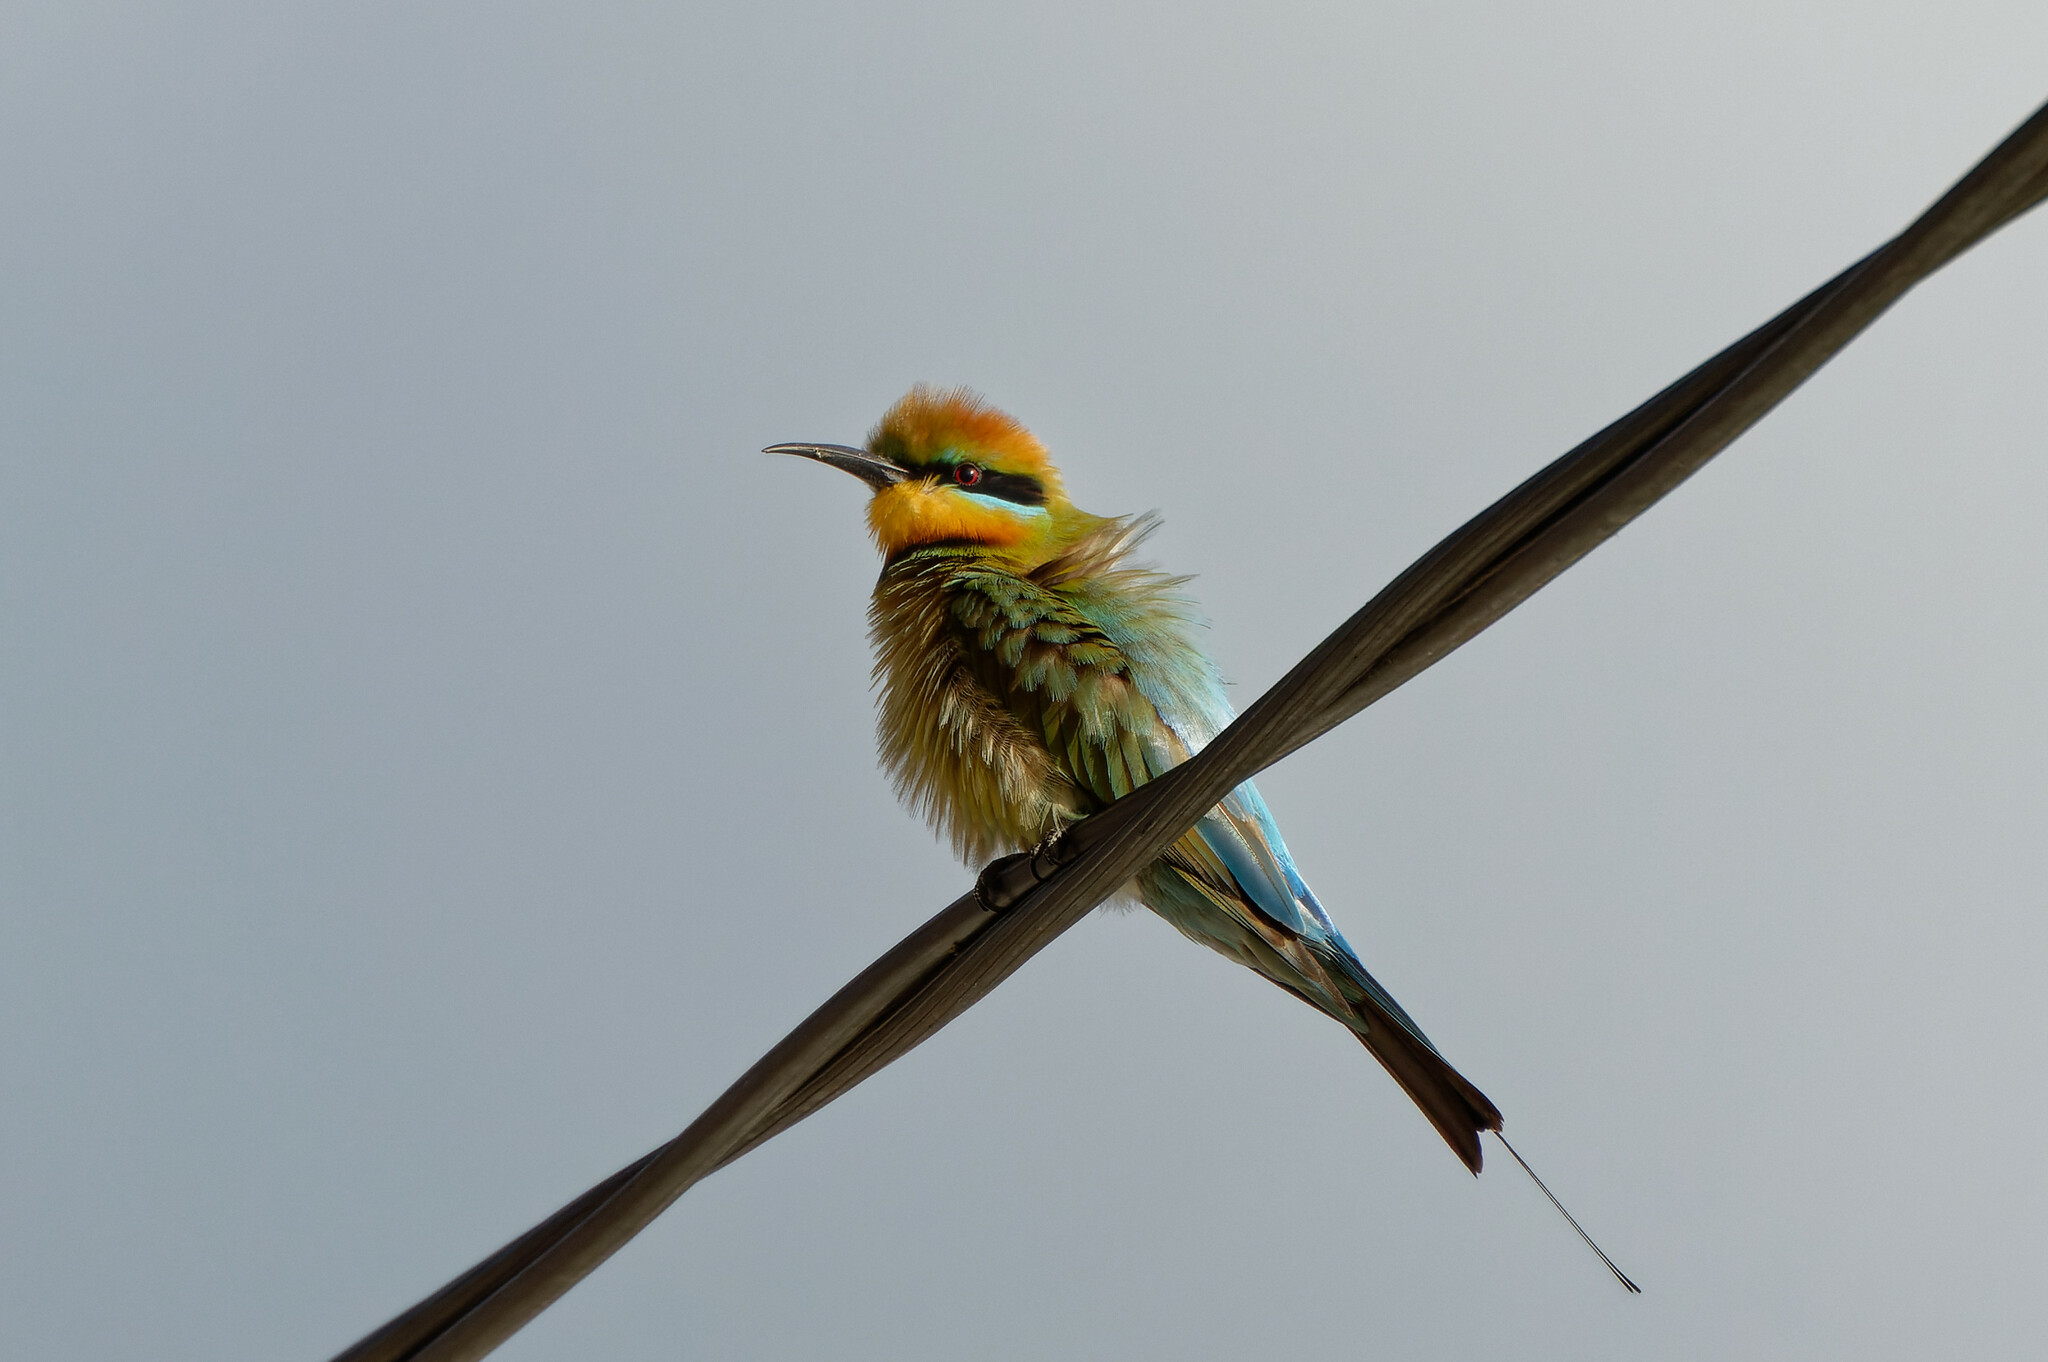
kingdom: Animalia
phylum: Chordata
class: Aves
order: Coraciiformes
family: Meropidae
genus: Merops
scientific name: Merops ornatus
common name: Rainbow bee-eater
